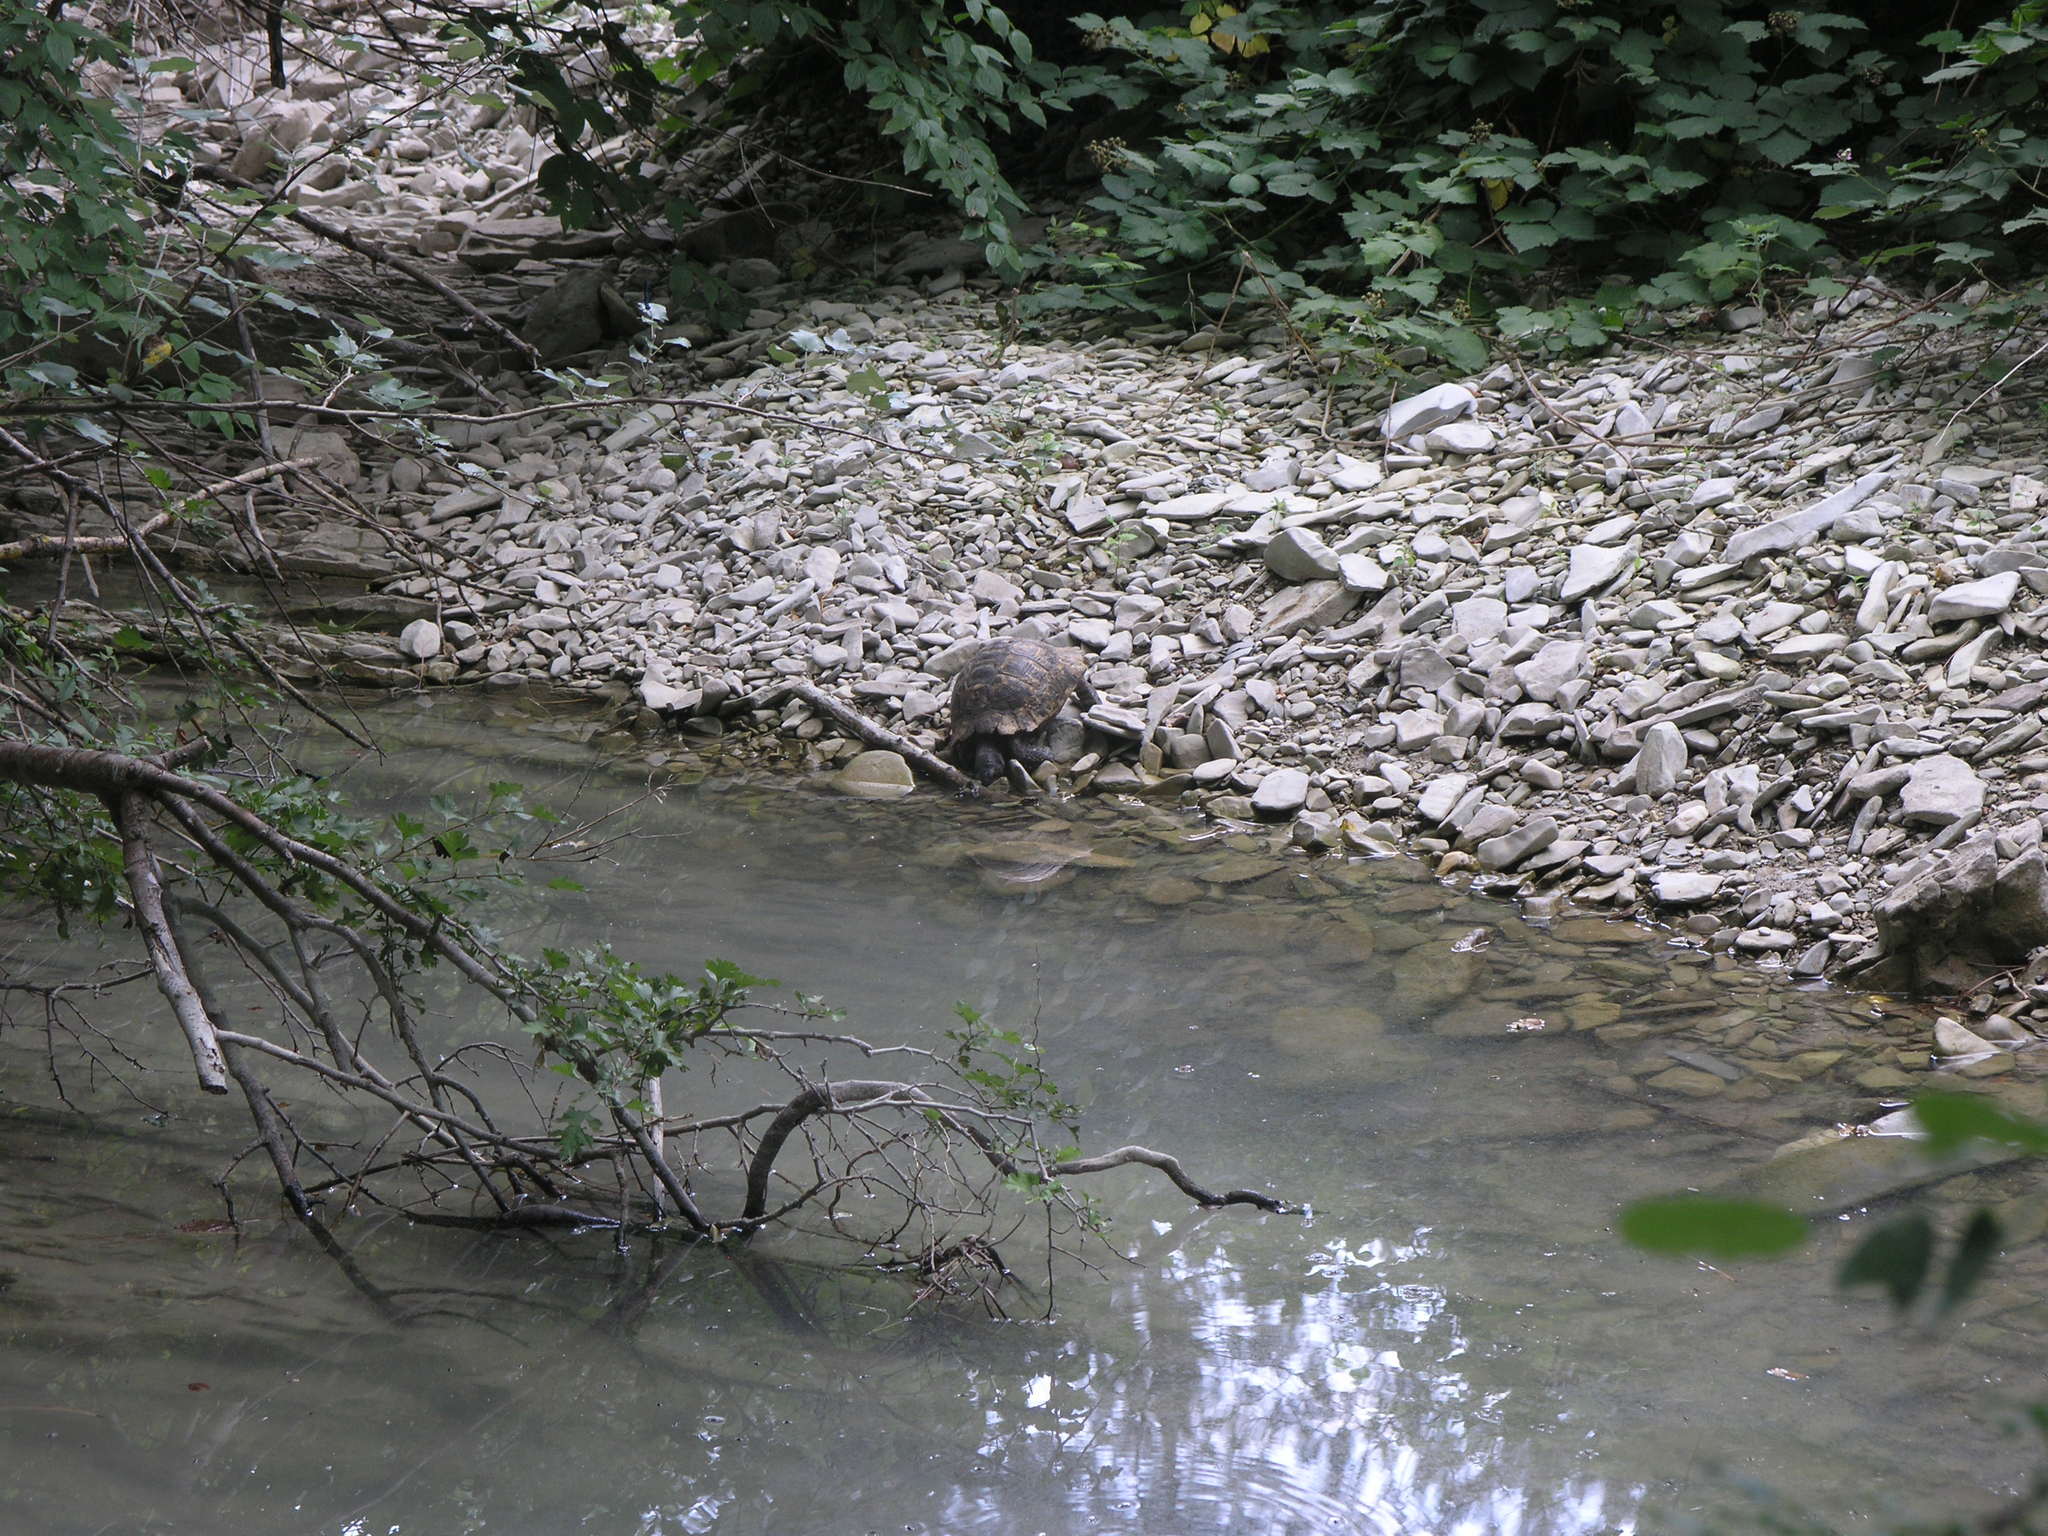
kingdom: Animalia
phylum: Chordata
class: Testudines
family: Testudinidae
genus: Testudo
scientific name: Testudo graeca
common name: Common tortoise
